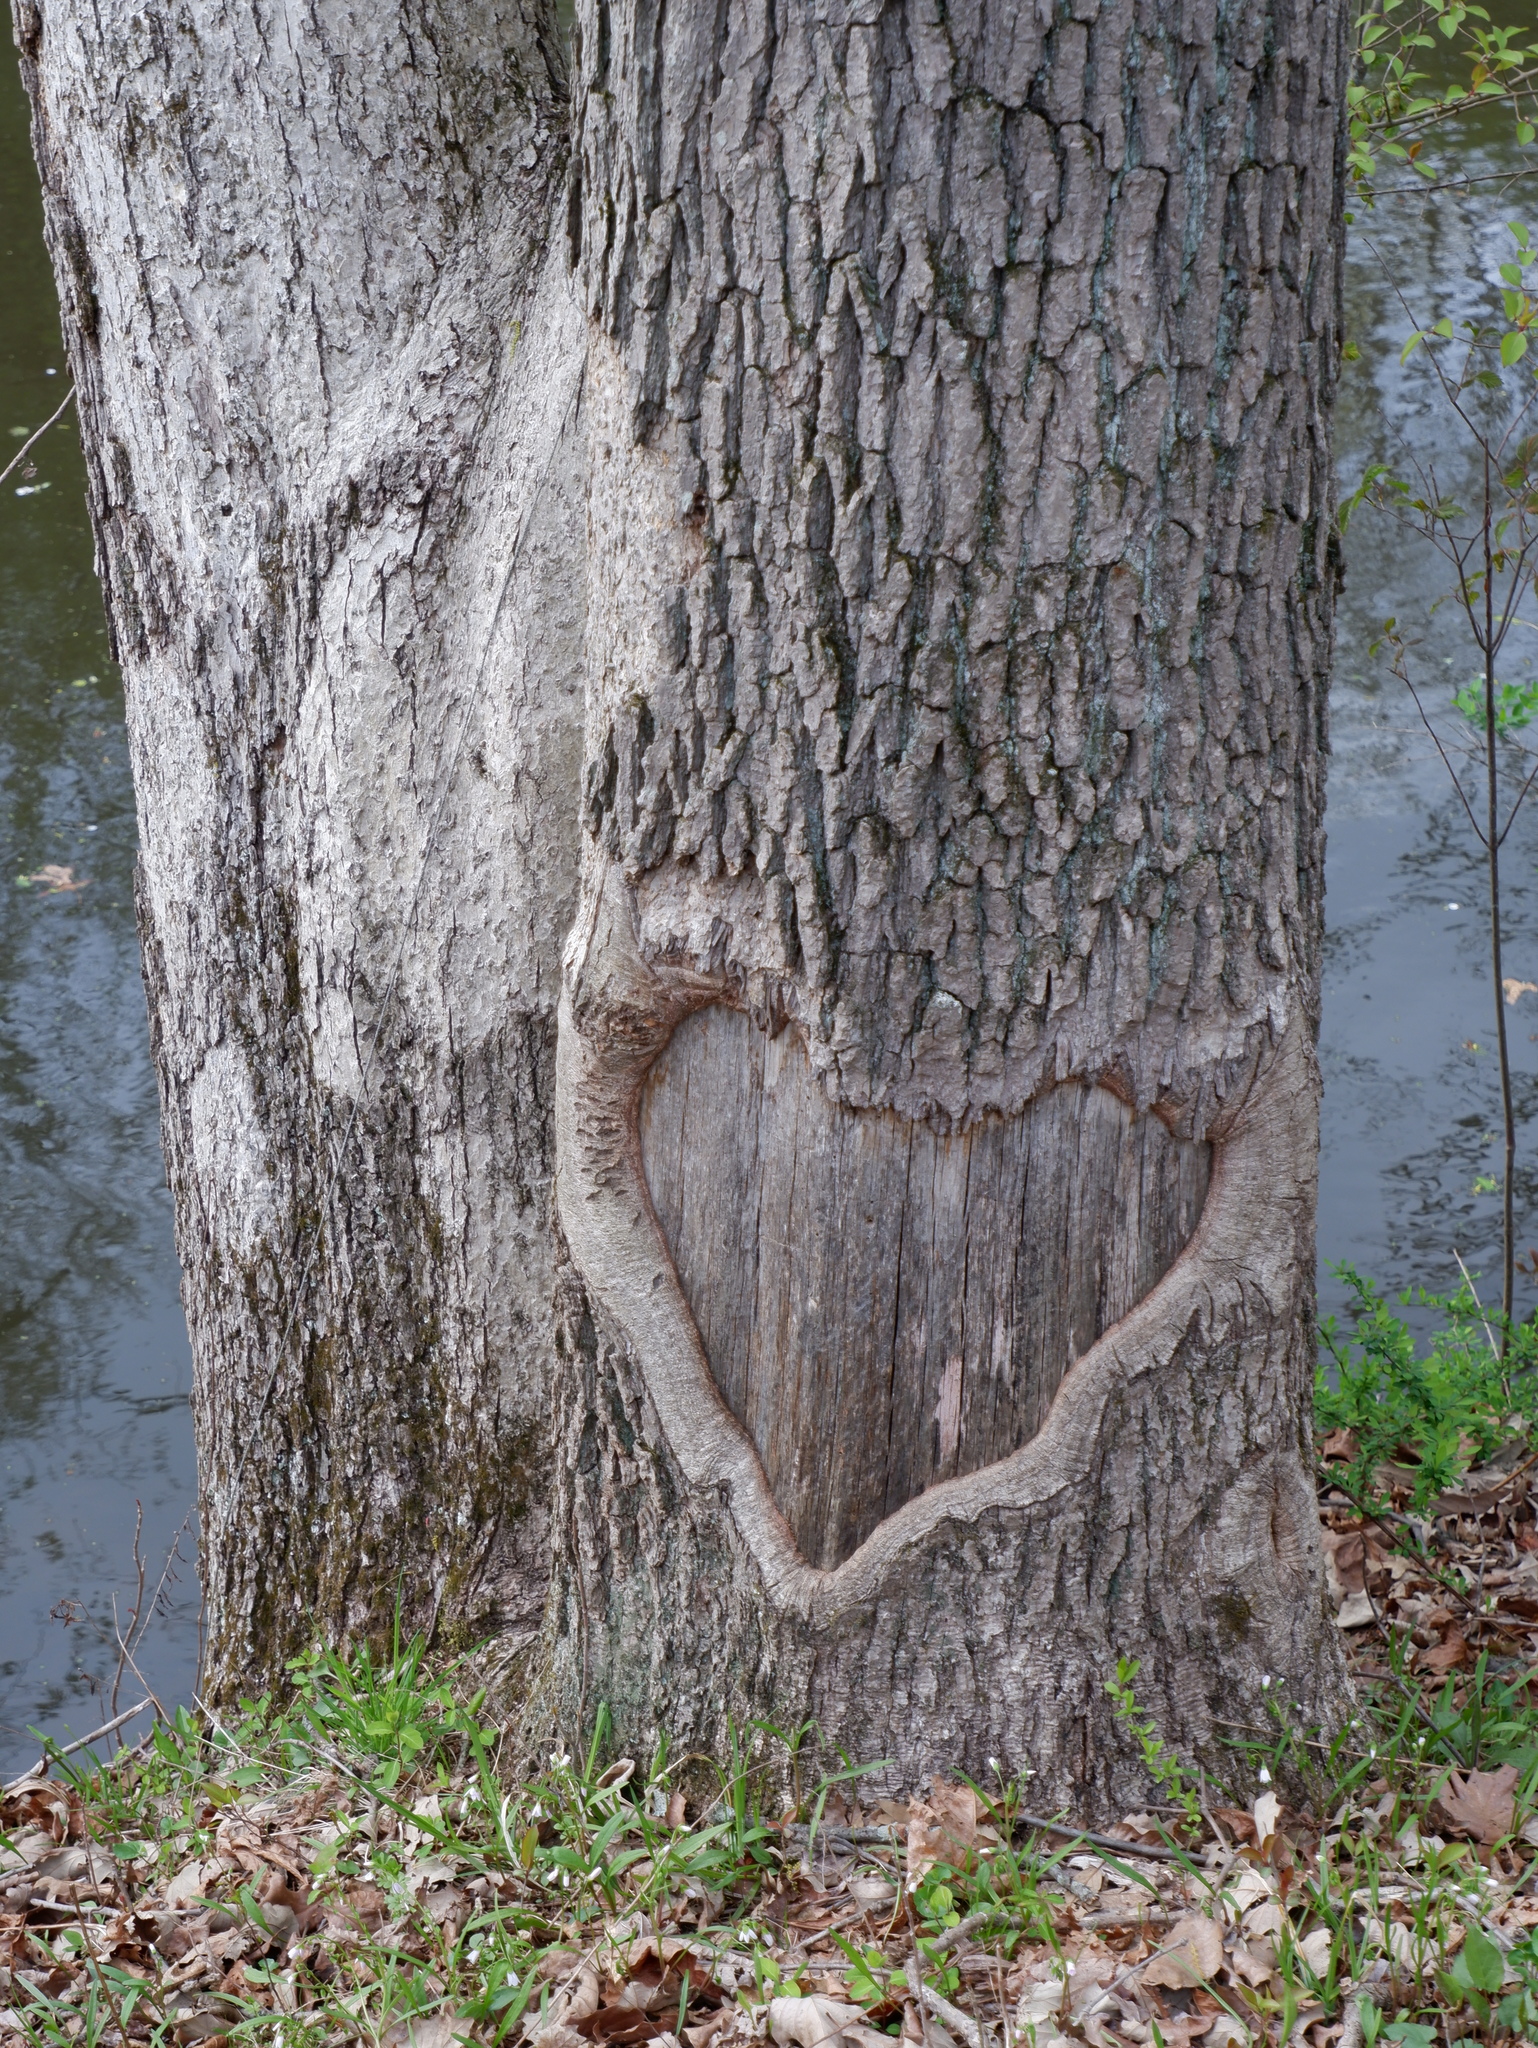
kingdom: Plantae
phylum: Tracheophyta
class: Magnoliopsida
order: Fagales
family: Fagaceae
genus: Quercus
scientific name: Quercus alba
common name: White oak
